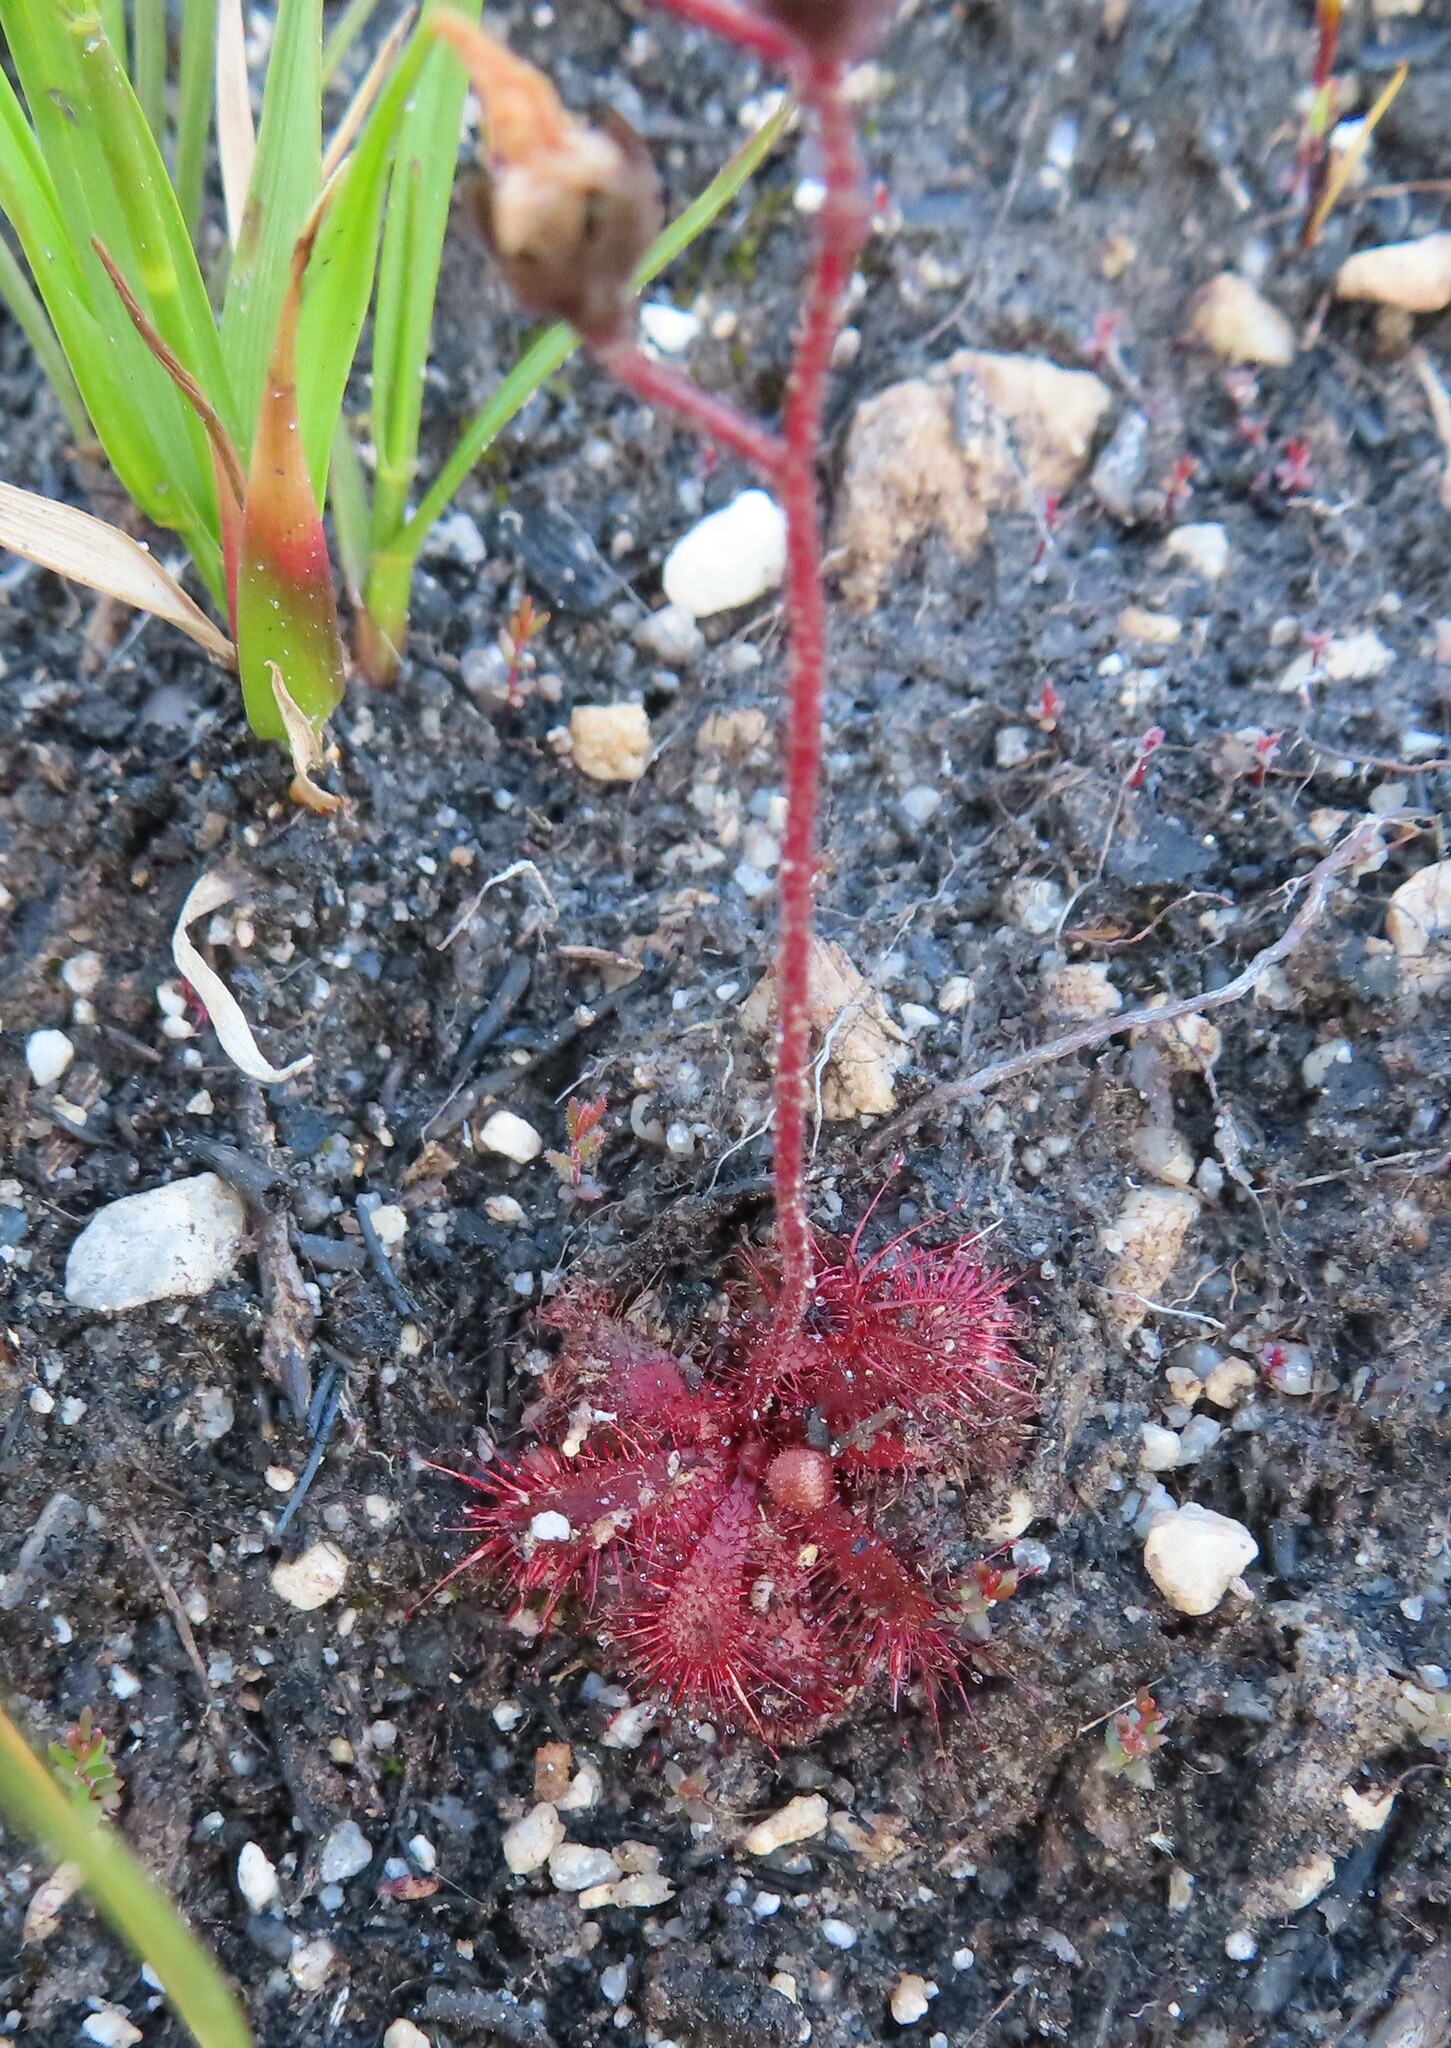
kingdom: Plantae
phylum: Tracheophyta
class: Magnoliopsida
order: Caryophyllales
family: Droseraceae
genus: Drosera
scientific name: Drosera trinervia
